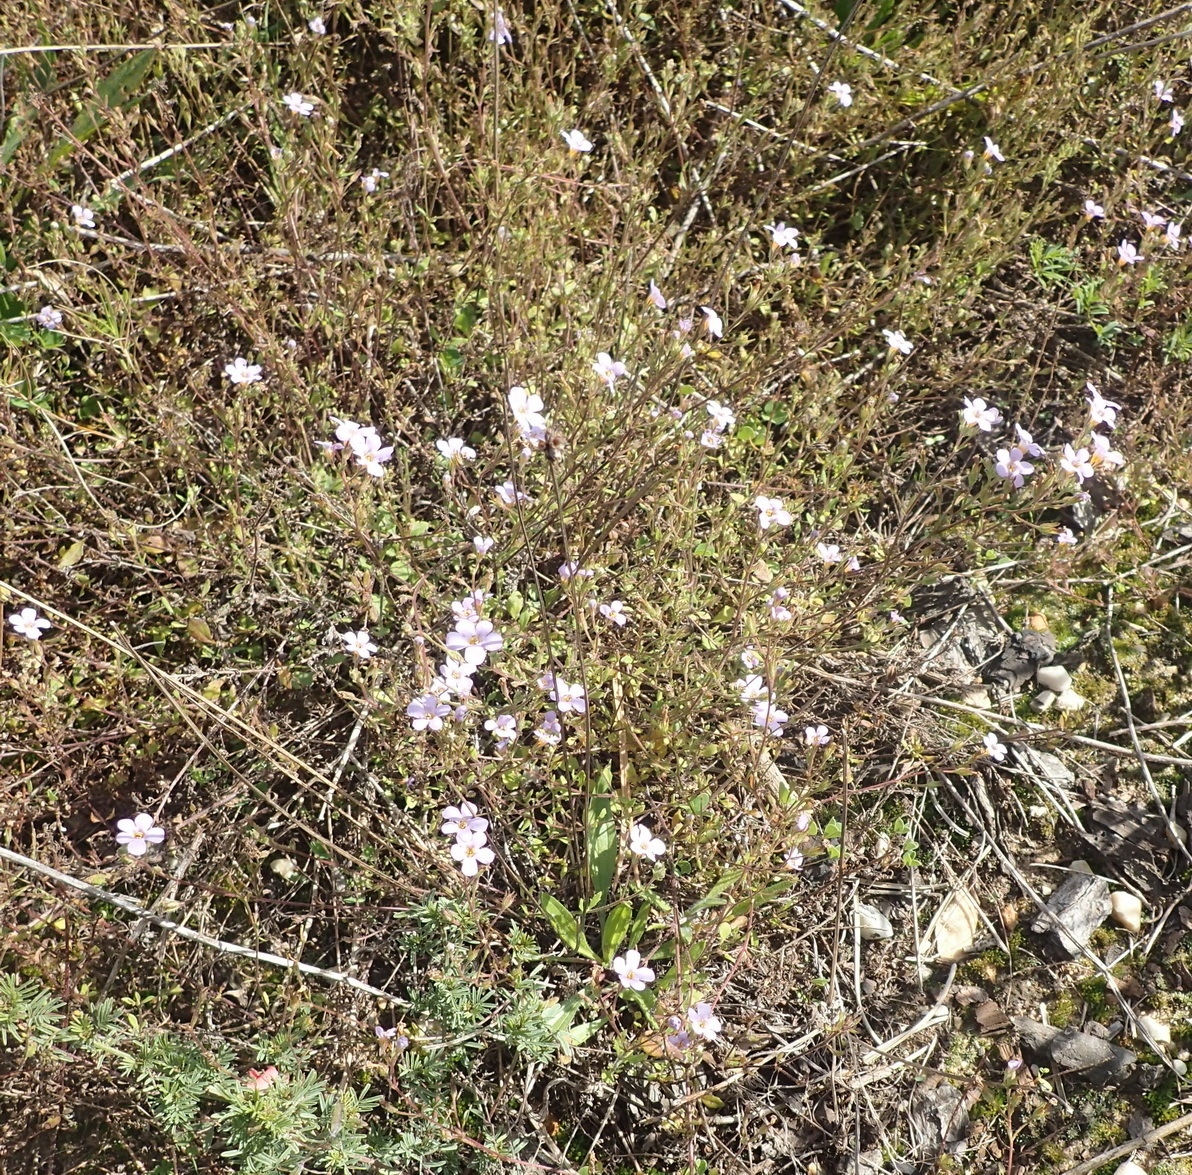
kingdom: Plantae
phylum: Tracheophyta
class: Magnoliopsida
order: Lamiales
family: Scrophulariaceae
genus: Chaenostoma
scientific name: Chaenostoma polyanthum
